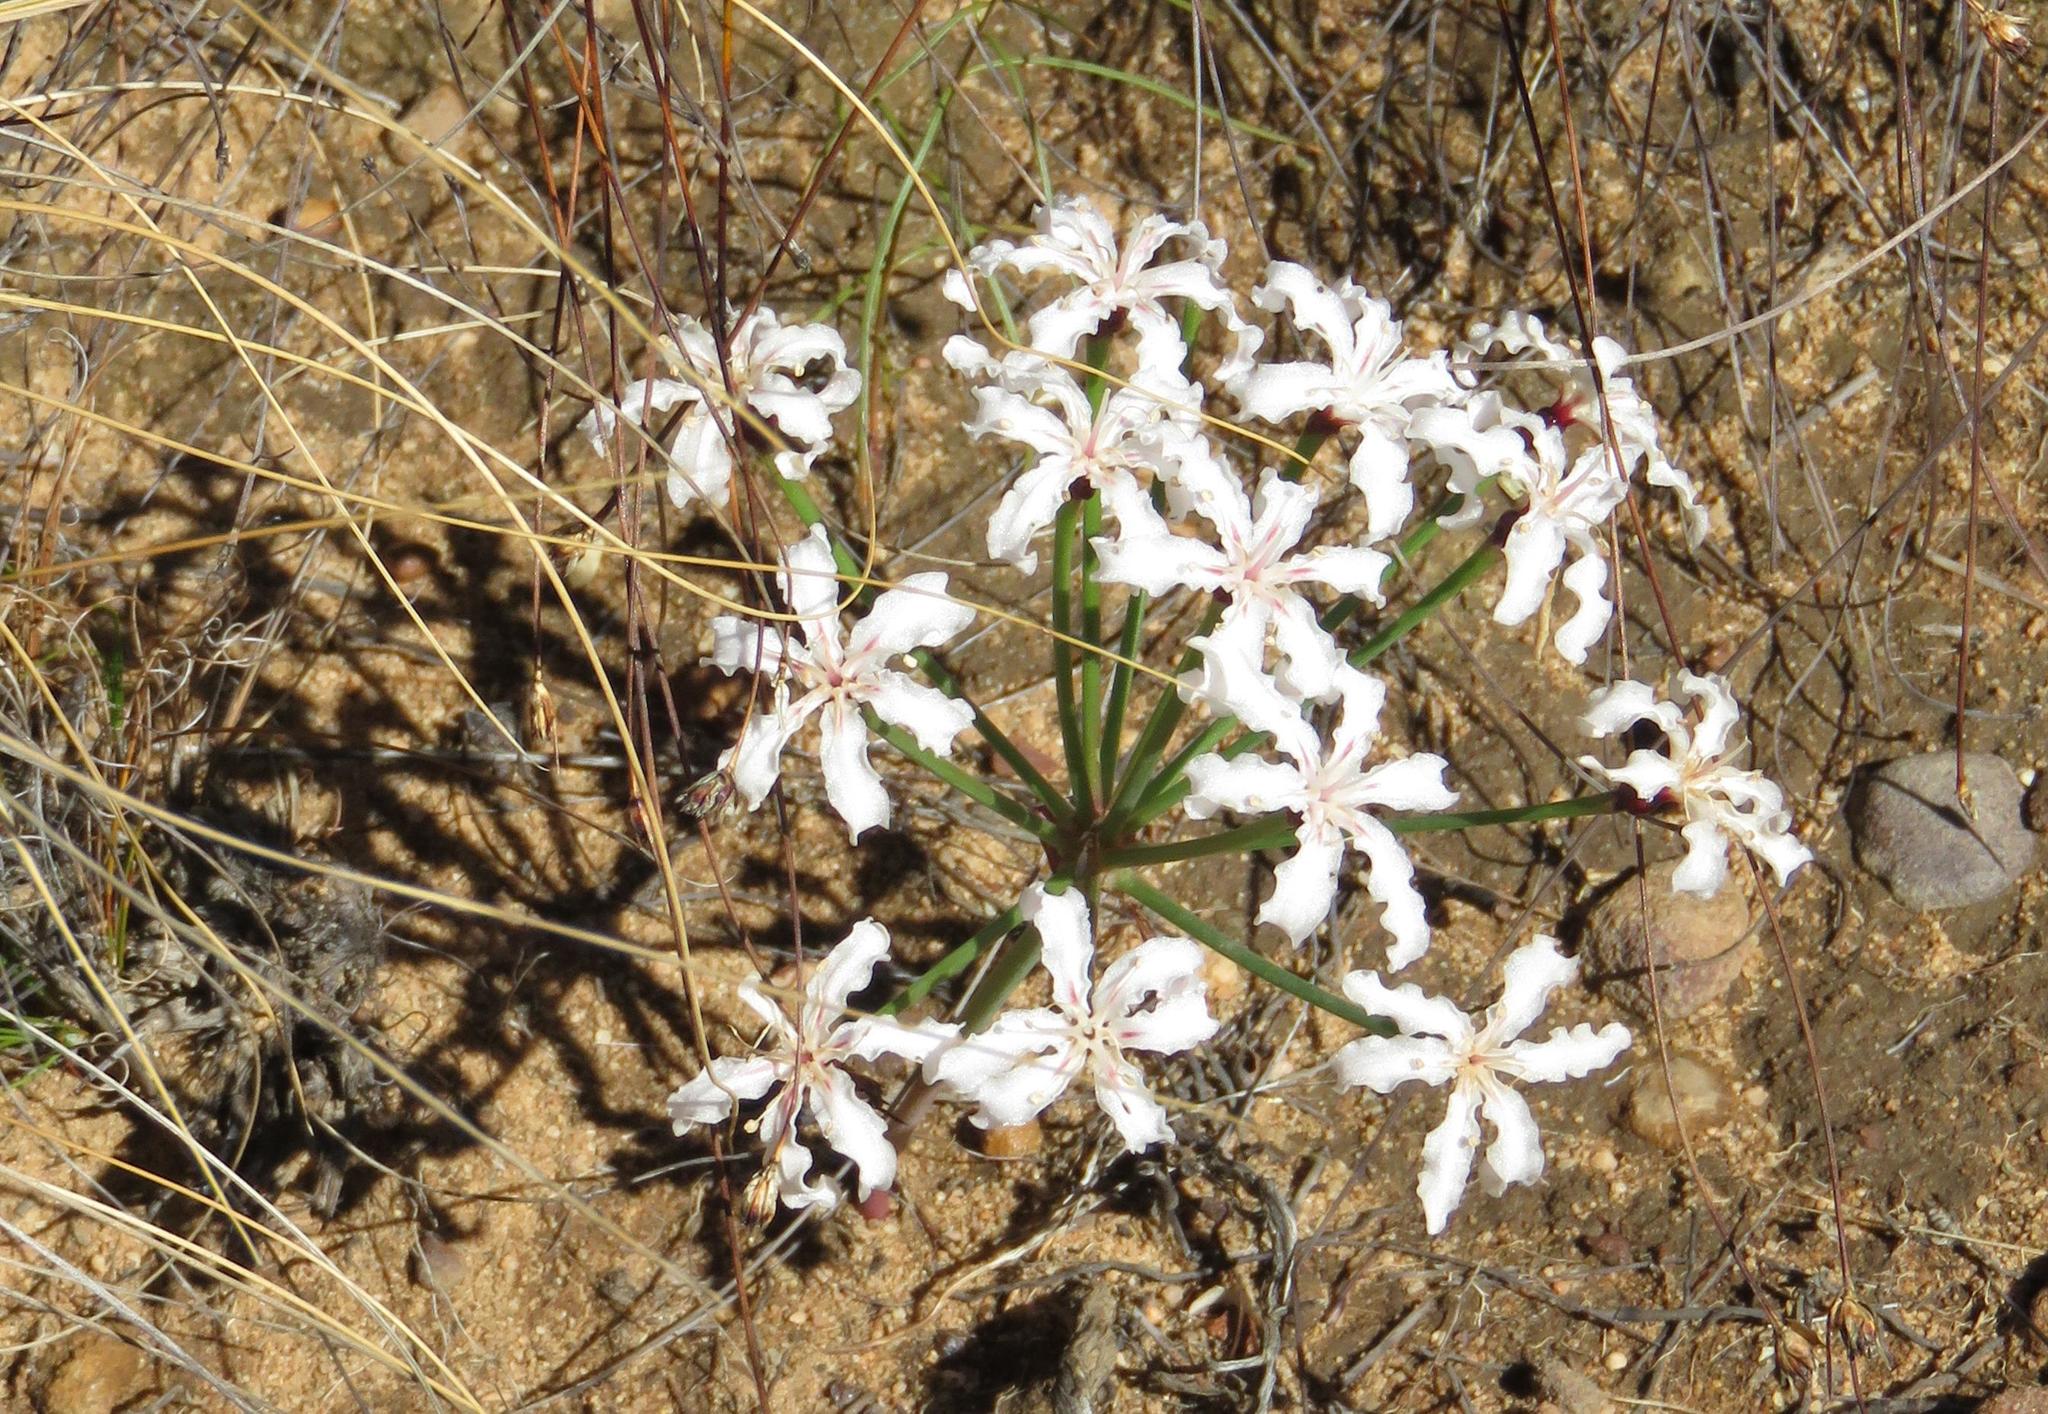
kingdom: Plantae
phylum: Tracheophyta
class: Liliopsida
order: Asparagales
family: Amaryllidaceae
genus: Hessea
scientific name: Hessea monticola
